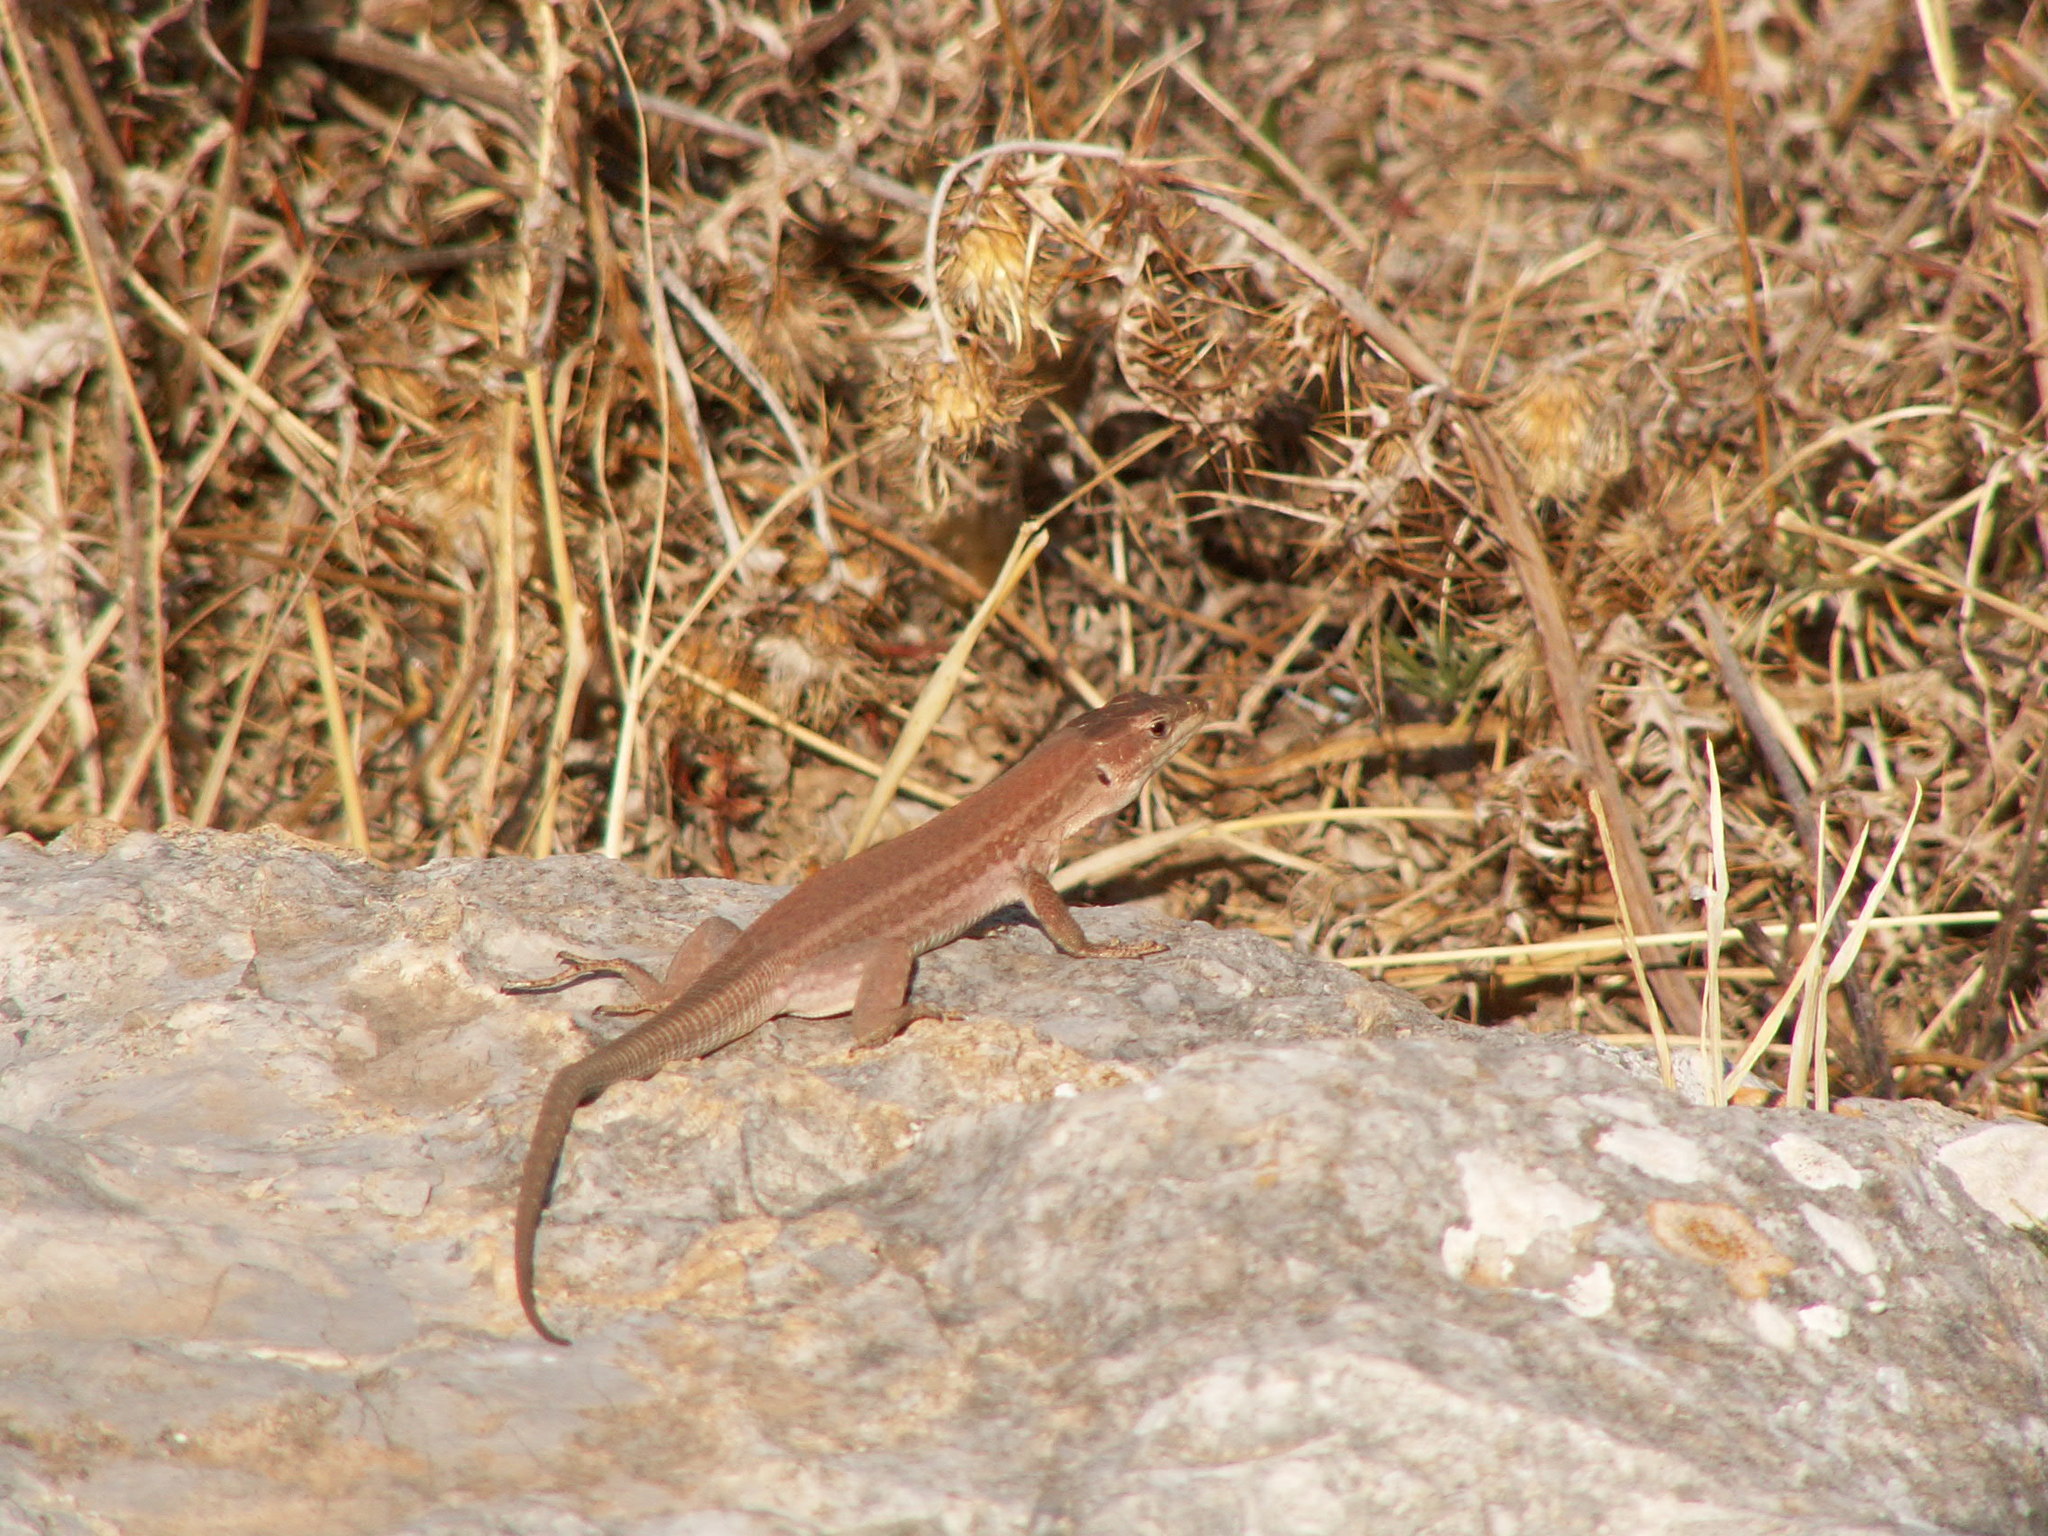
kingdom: Animalia
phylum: Chordata
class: Squamata
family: Lacertidae
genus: Podarcis
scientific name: Podarcis waglerianus
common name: Sicilian wall lizard
